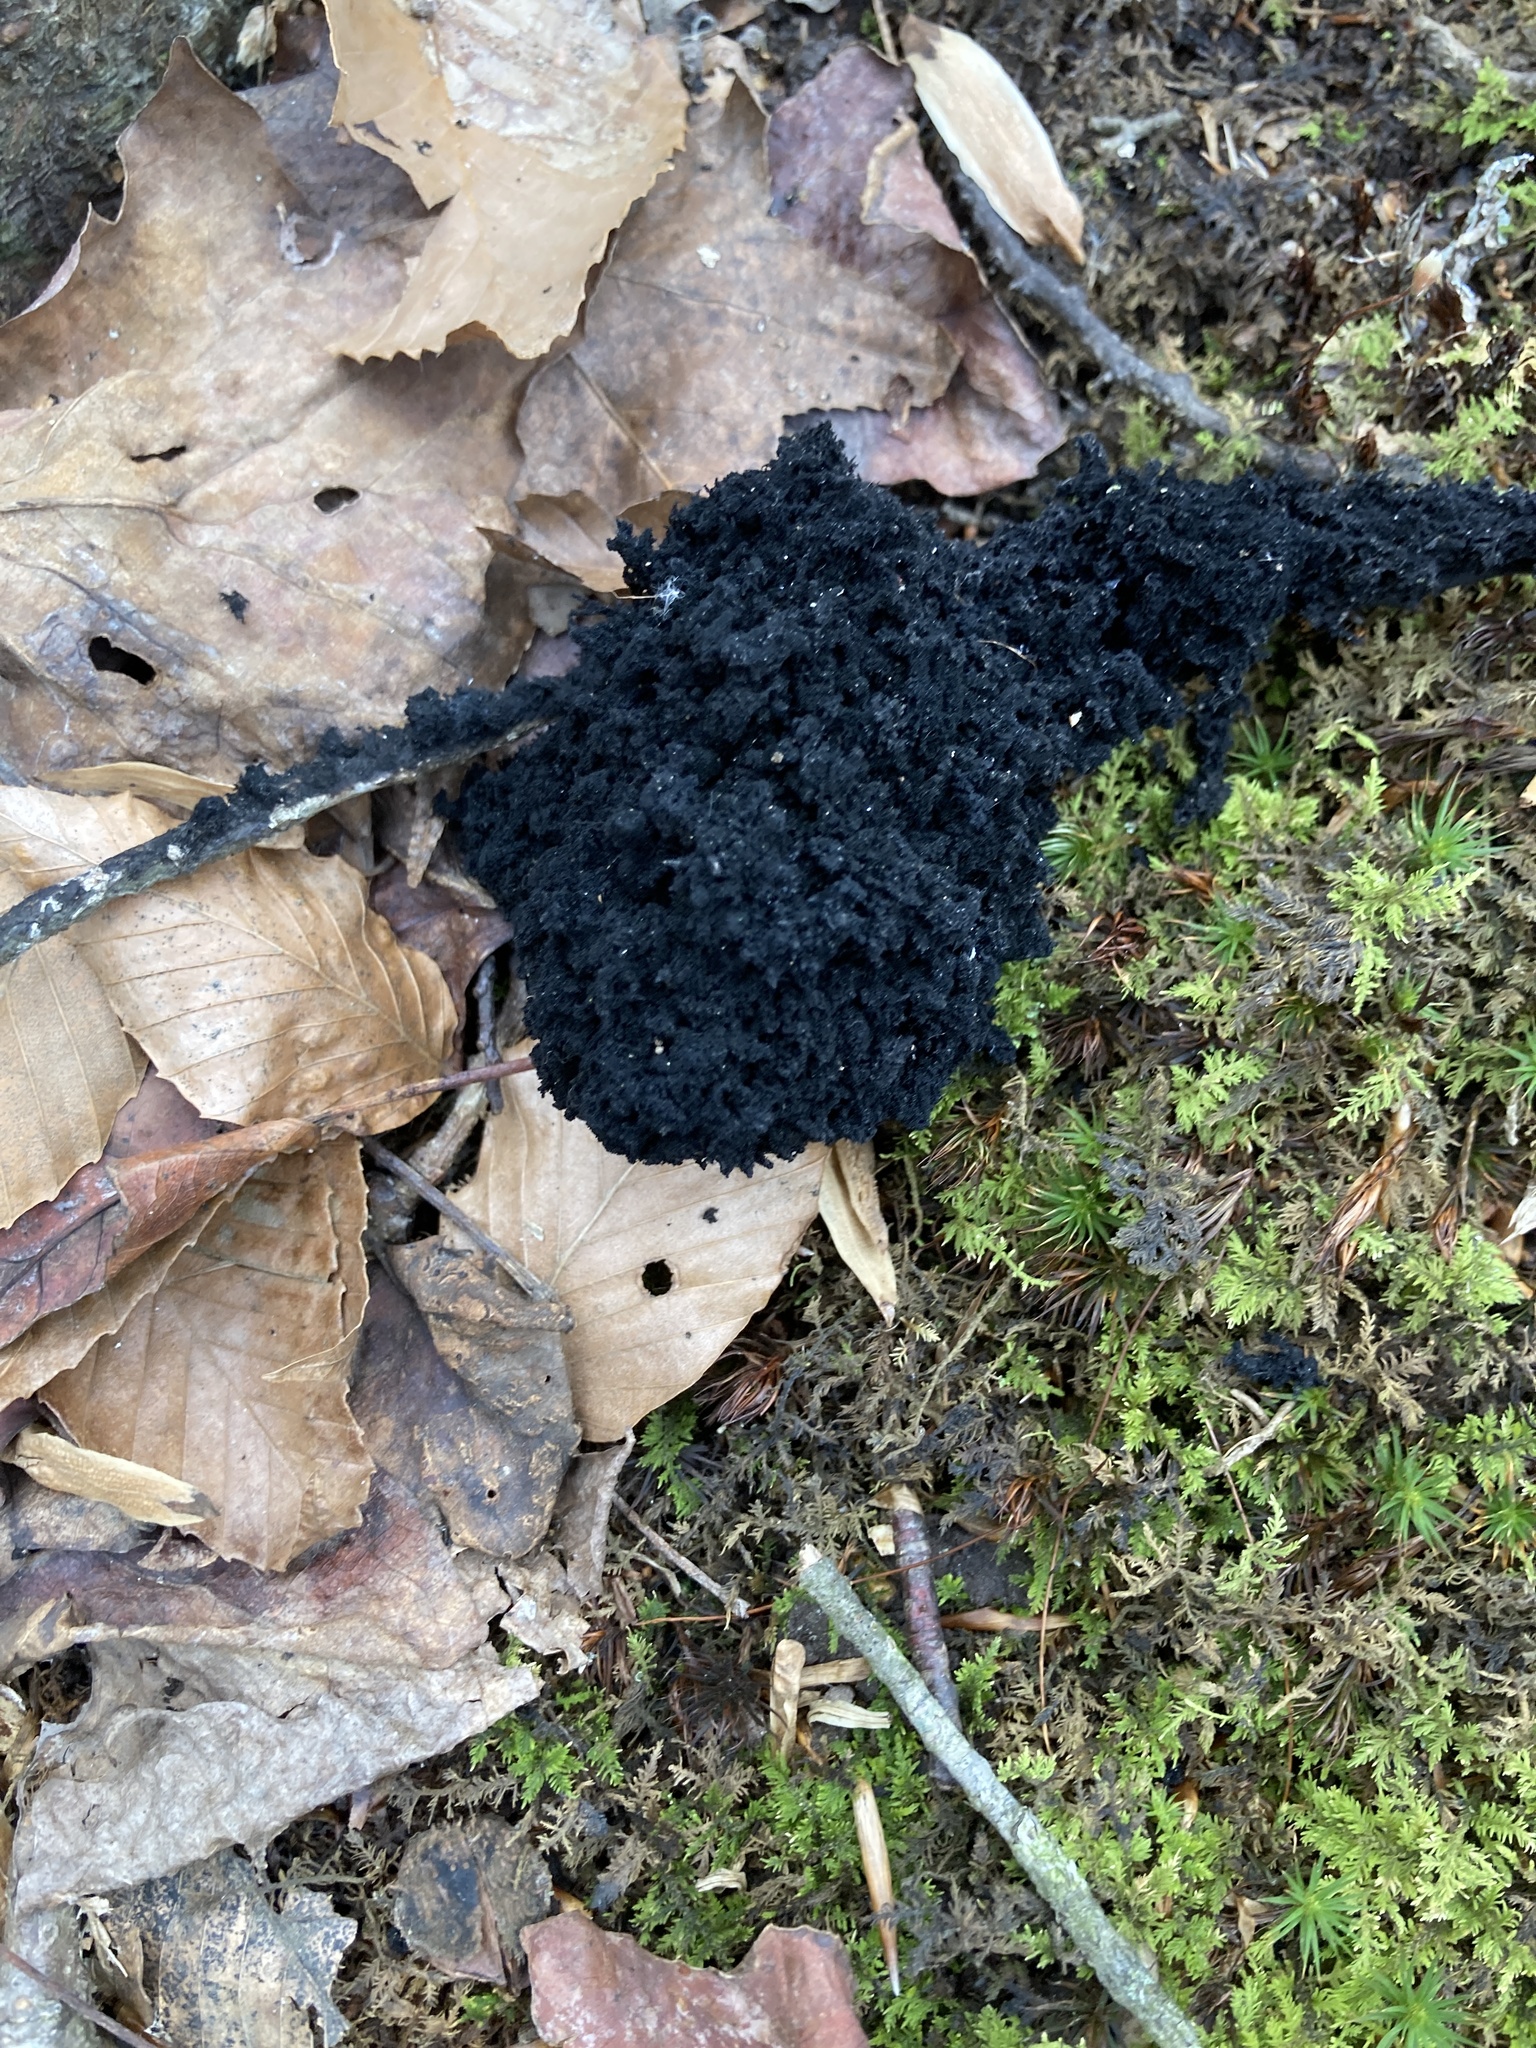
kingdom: Fungi
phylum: Ascomycota
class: Dothideomycetes
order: Capnodiales
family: Capnodiaceae
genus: Scorias
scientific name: Scorias spongiosa
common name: Black sooty mold
